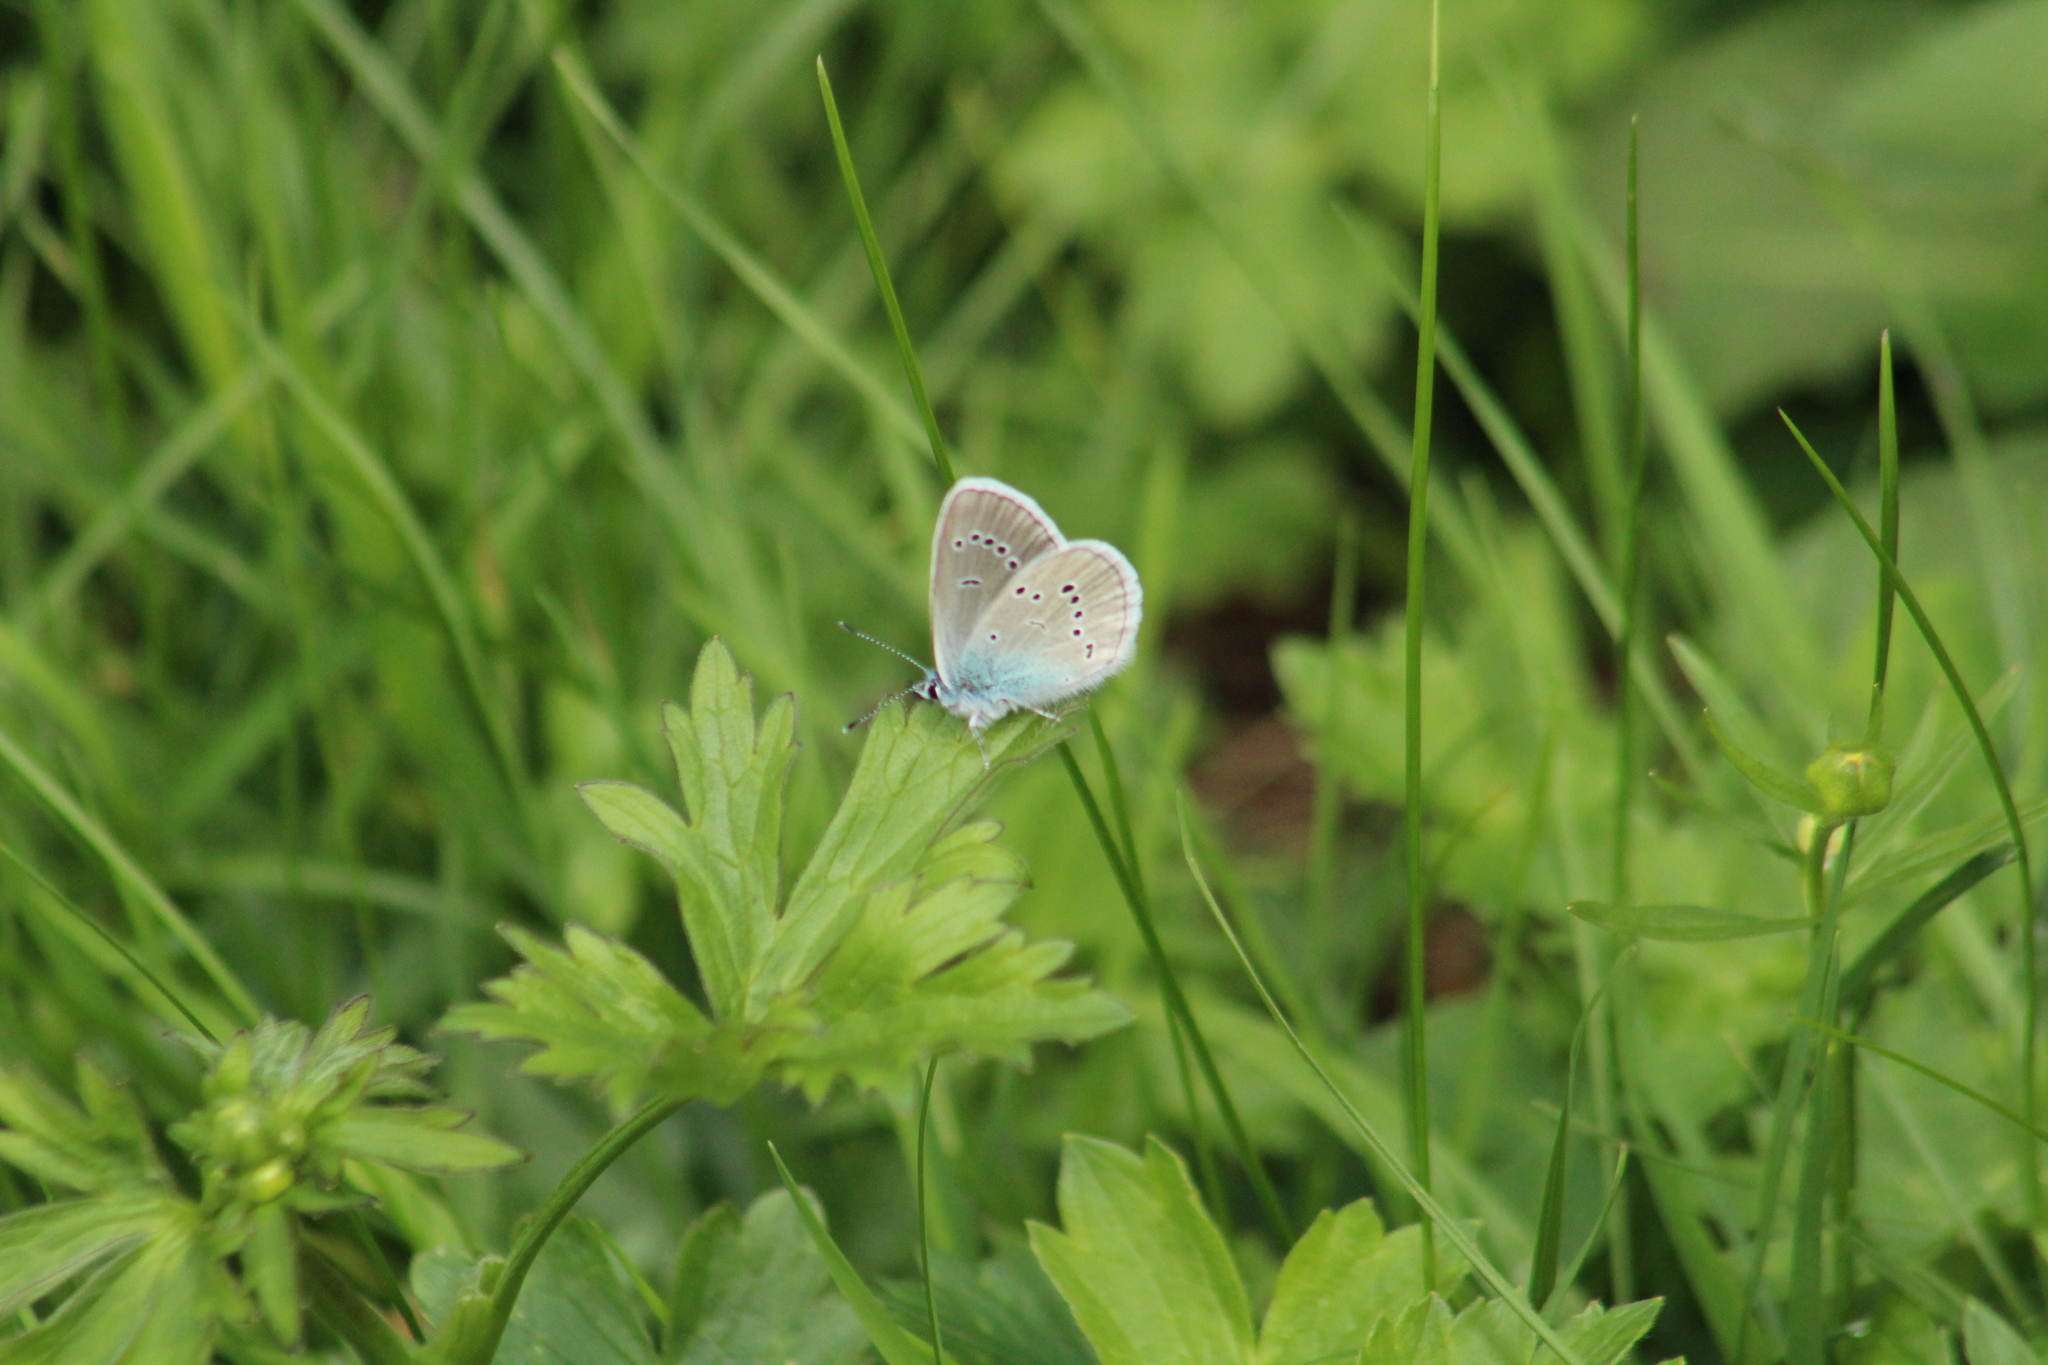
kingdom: Animalia
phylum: Arthropoda
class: Insecta
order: Lepidoptera
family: Lycaenidae
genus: Cyaniris
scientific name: Cyaniris semiargus
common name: Mazarine blue
